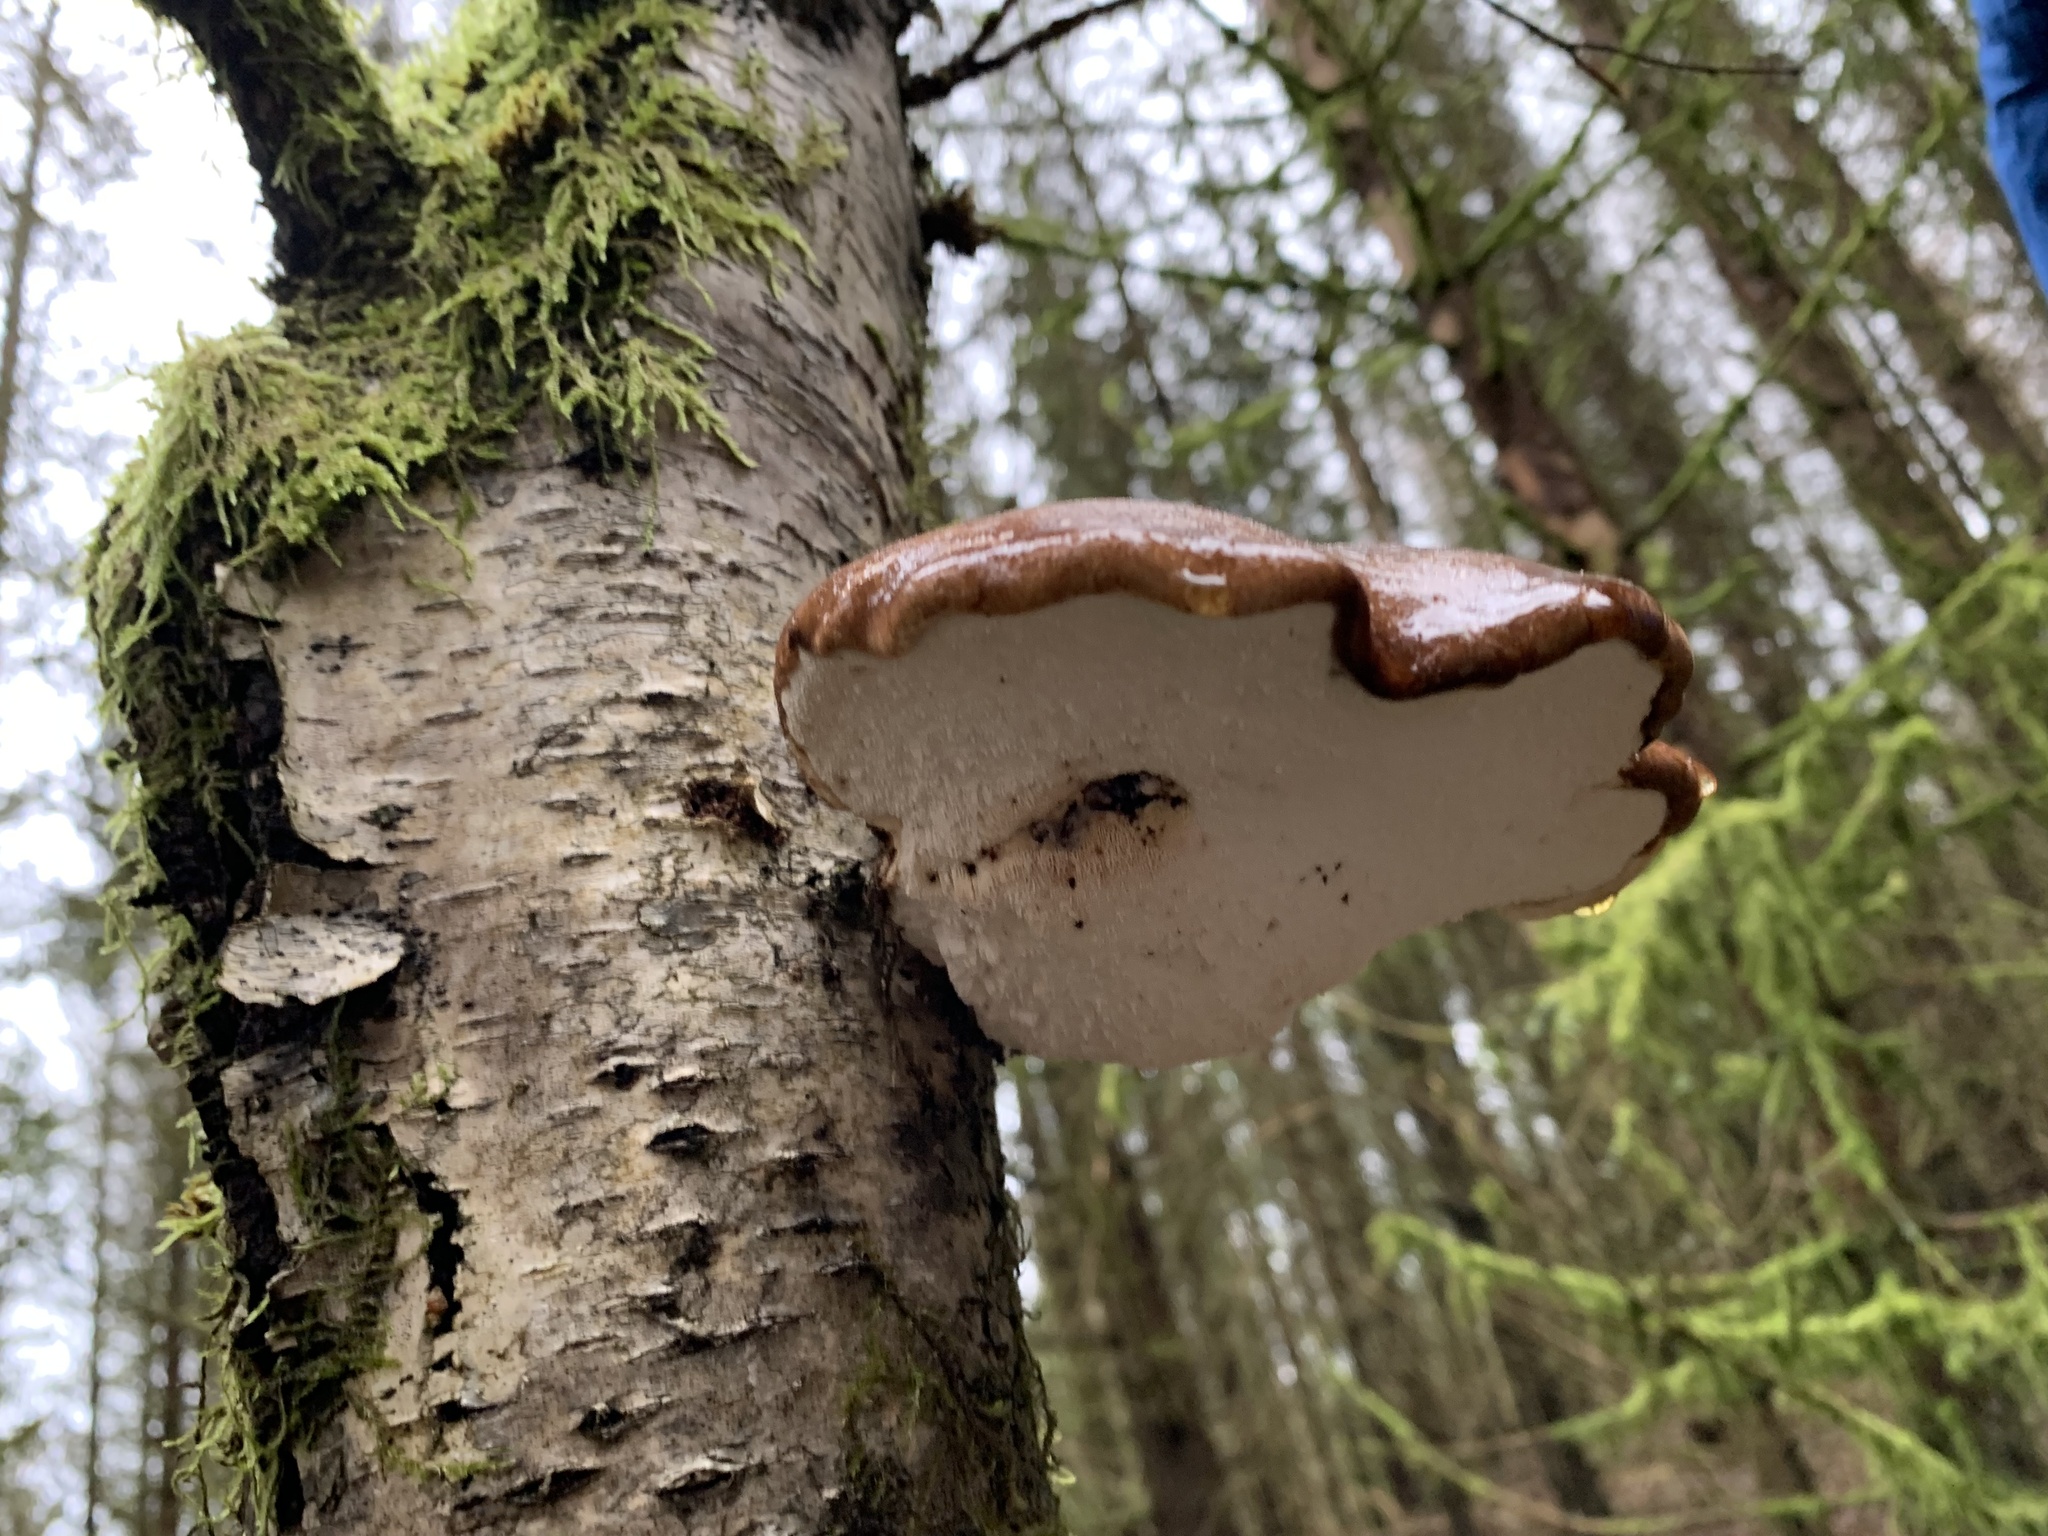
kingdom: Fungi
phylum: Basidiomycota
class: Agaricomycetes
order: Polyporales
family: Fomitopsidaceae
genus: Fomitopsis
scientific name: Fomitopsis betulina
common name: Birch polypore
